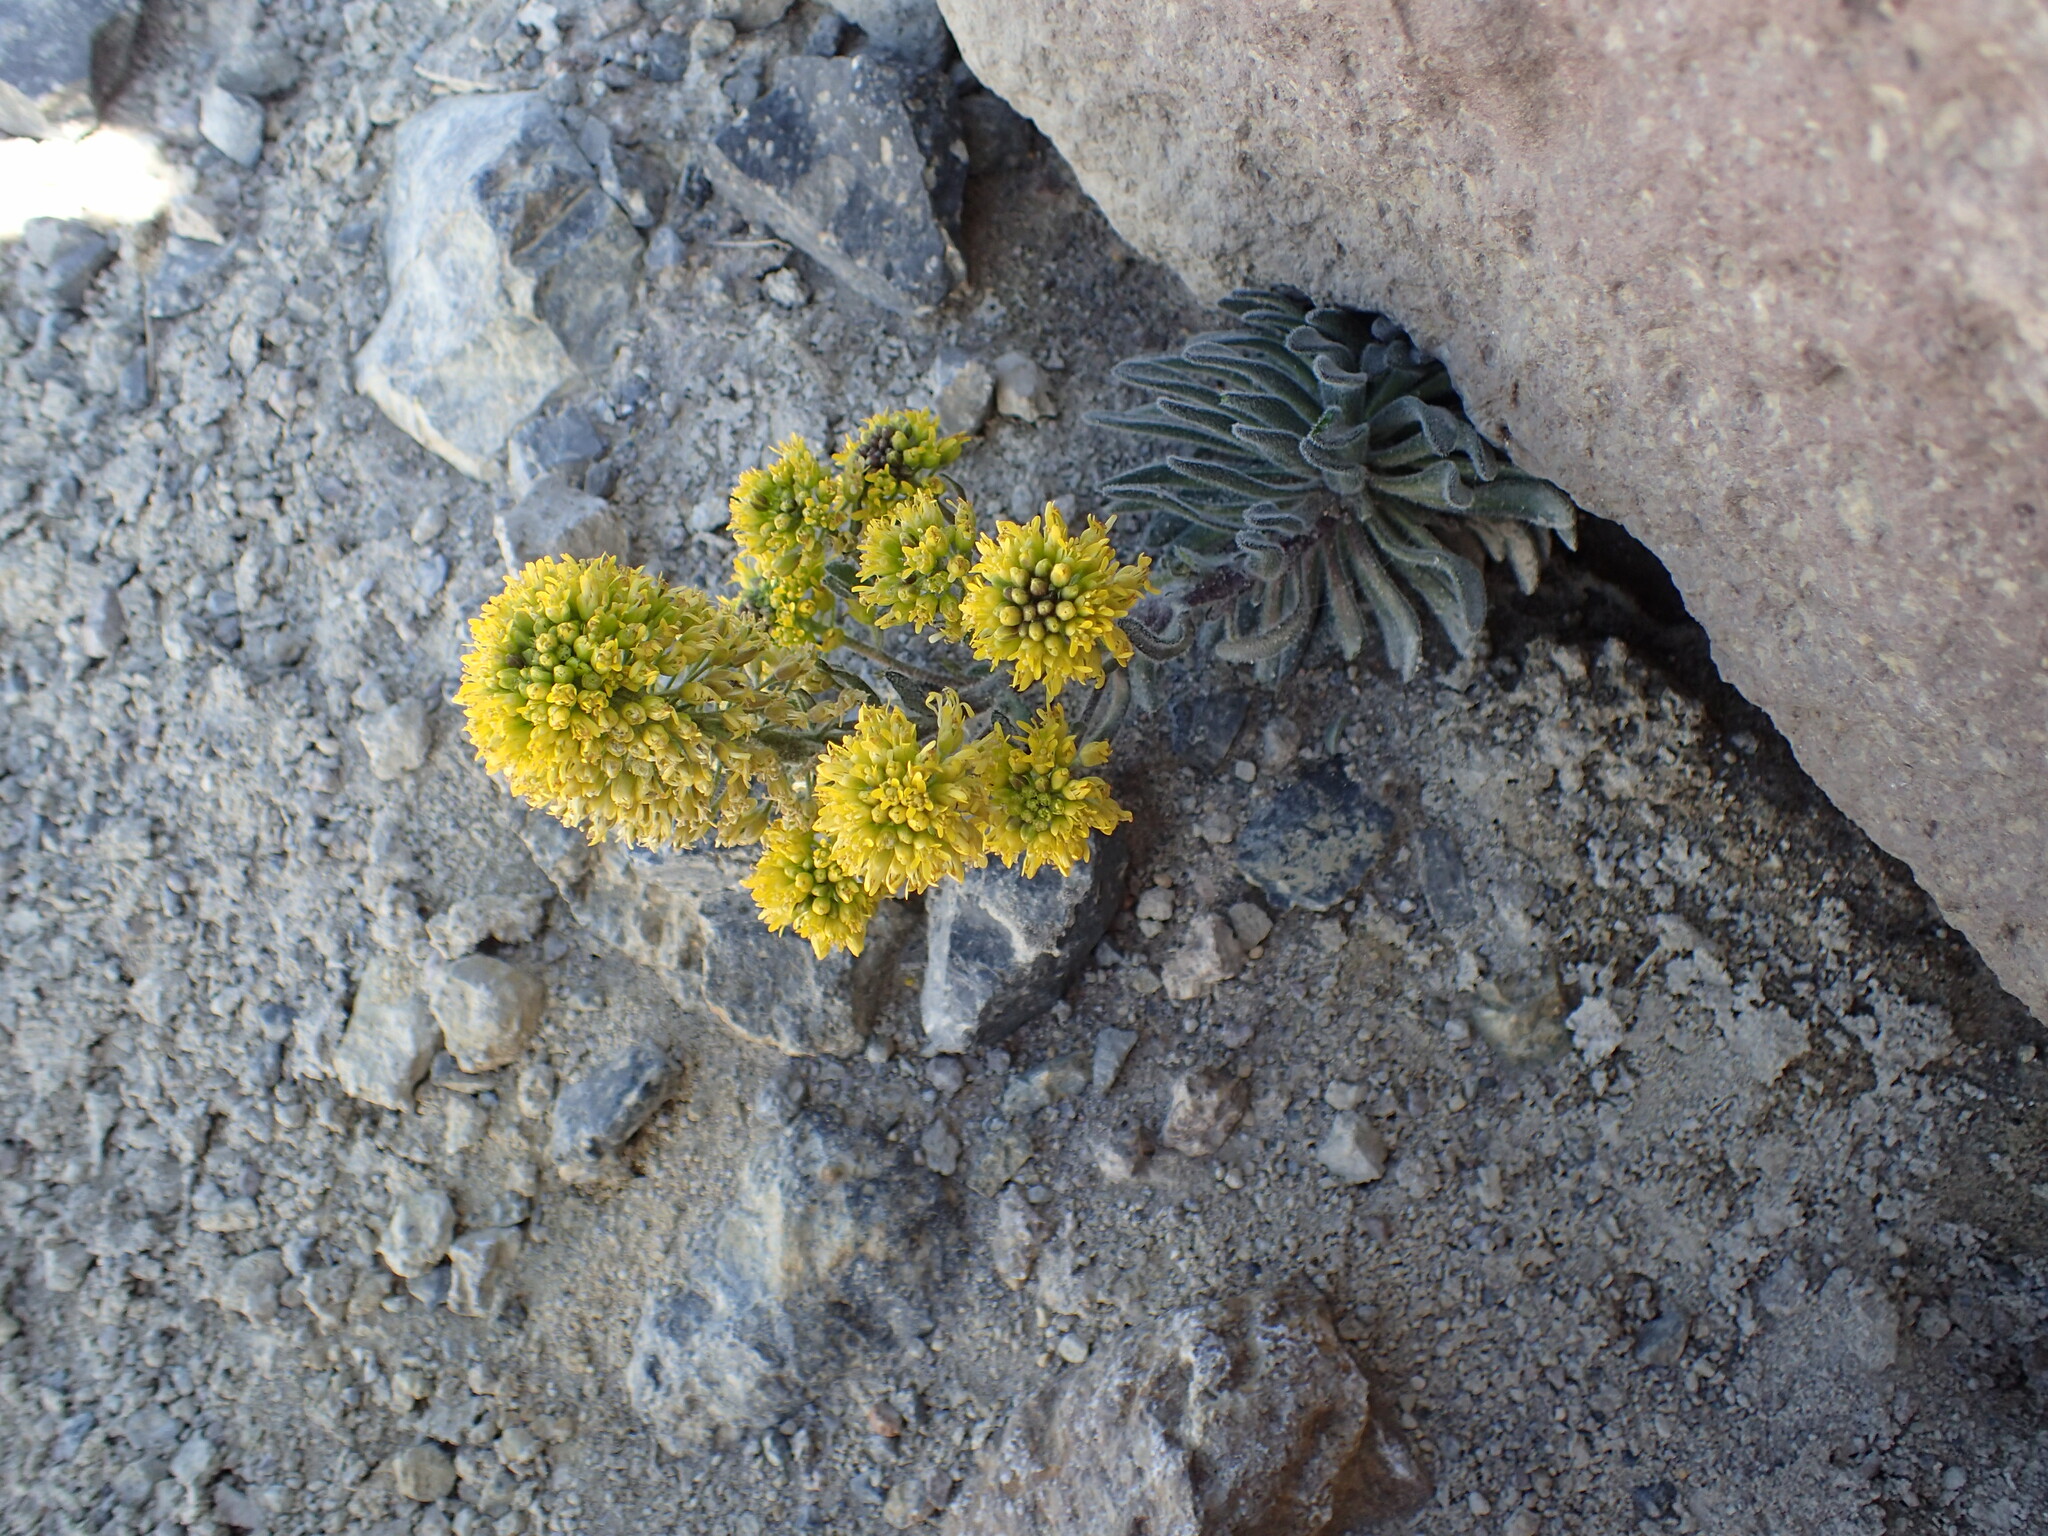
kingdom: Plantae
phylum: Tracheophyta
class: Magnoliopsida
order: Brassicales
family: Brassicaceae
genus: Draba
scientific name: Draba aureola
